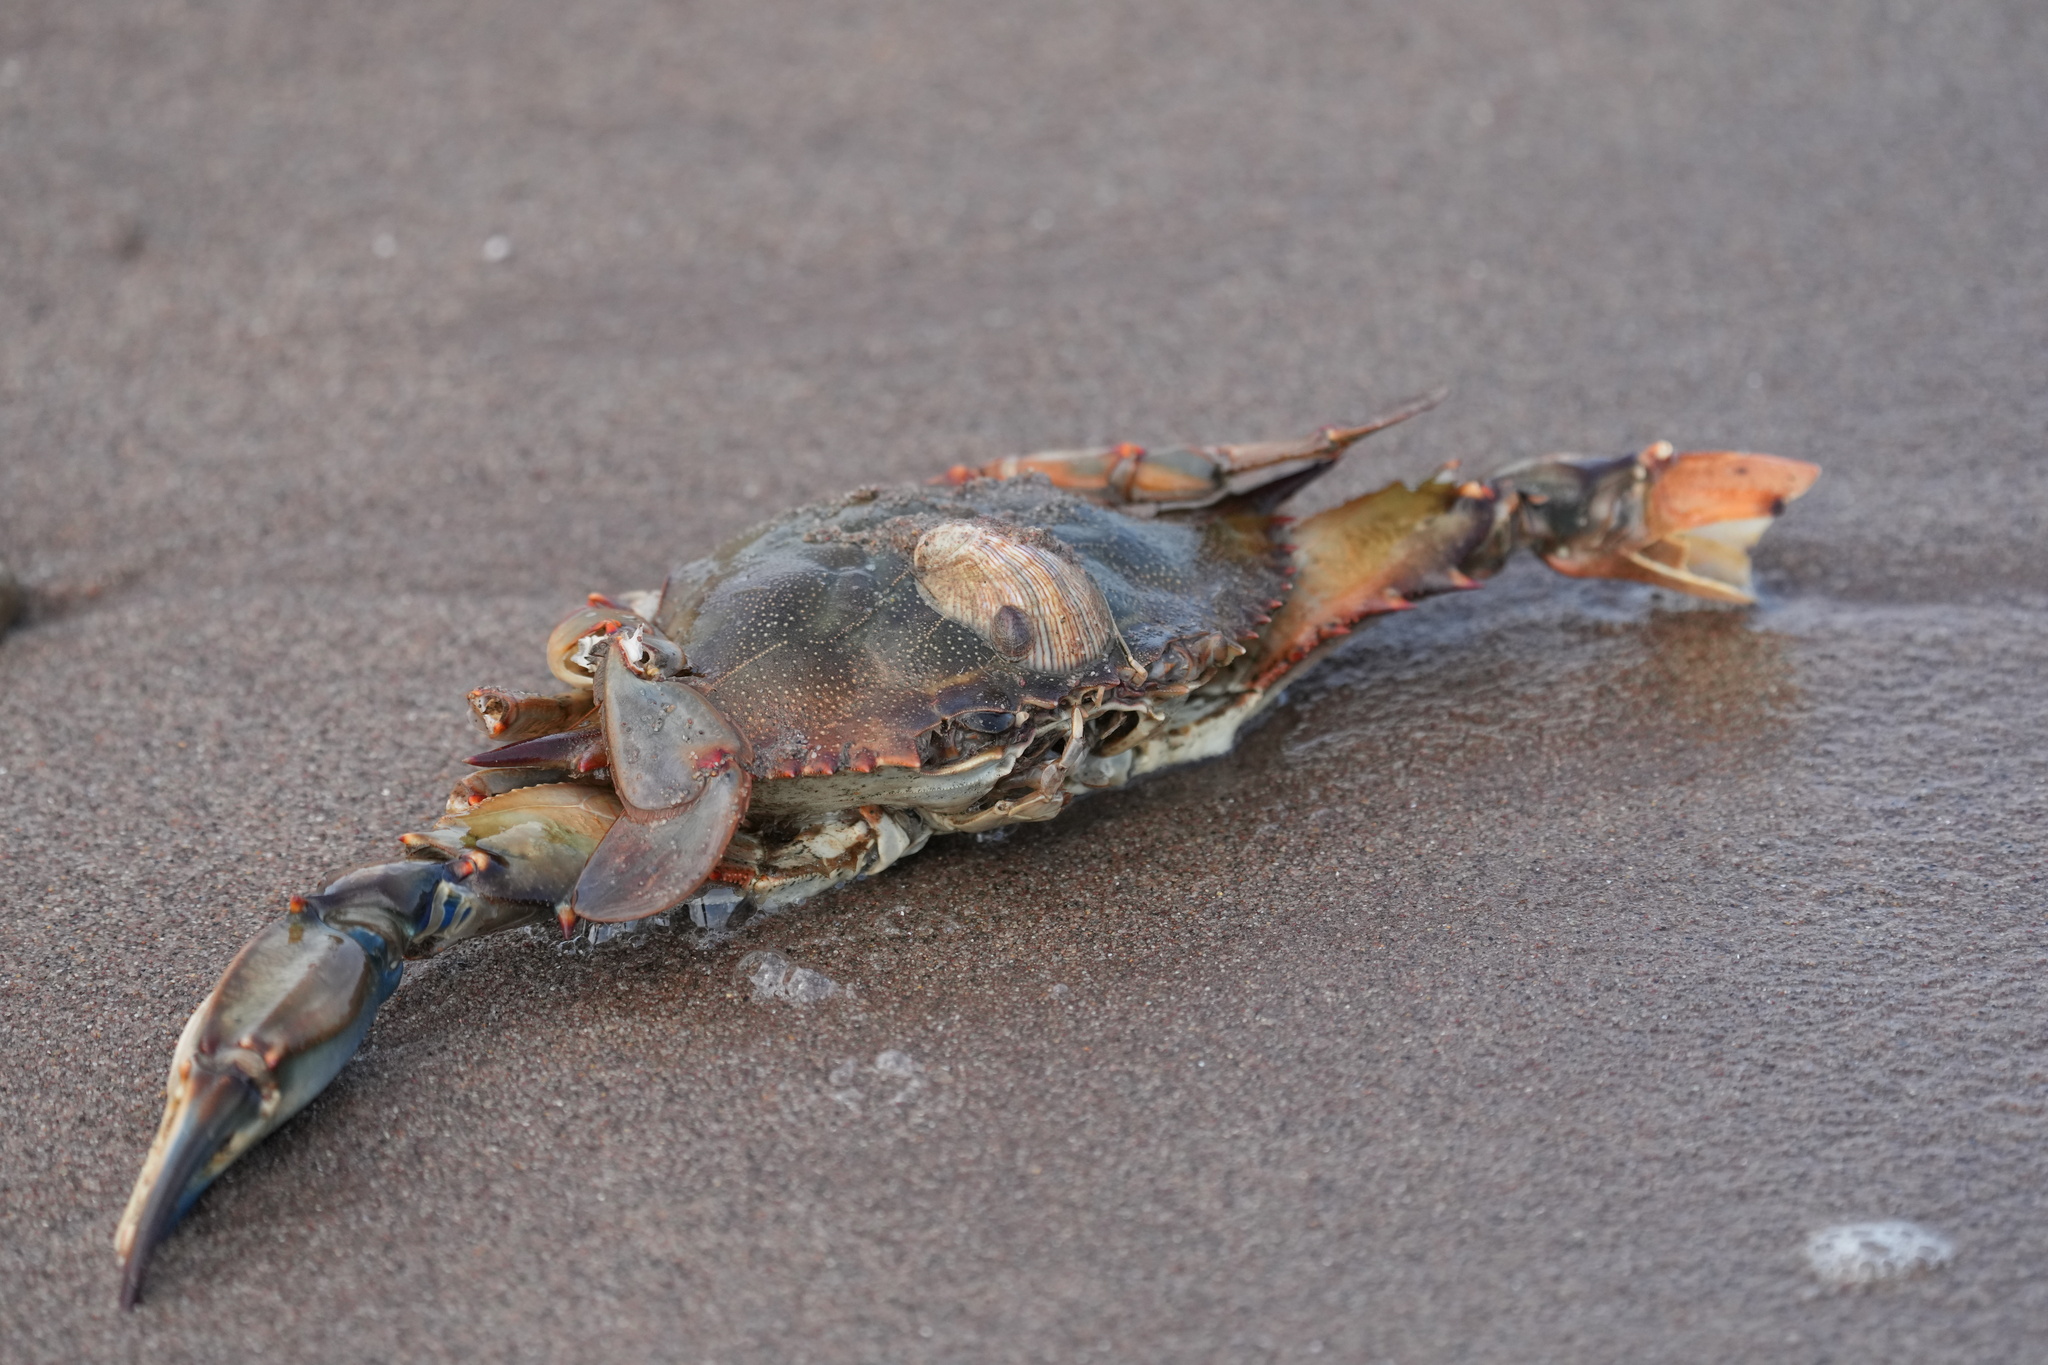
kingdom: Animalia
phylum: Arthropoda
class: Malacostraca
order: Decapoda
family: Portunidae
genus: Callinectes
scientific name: Callinectes sapidus
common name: Blue crab
